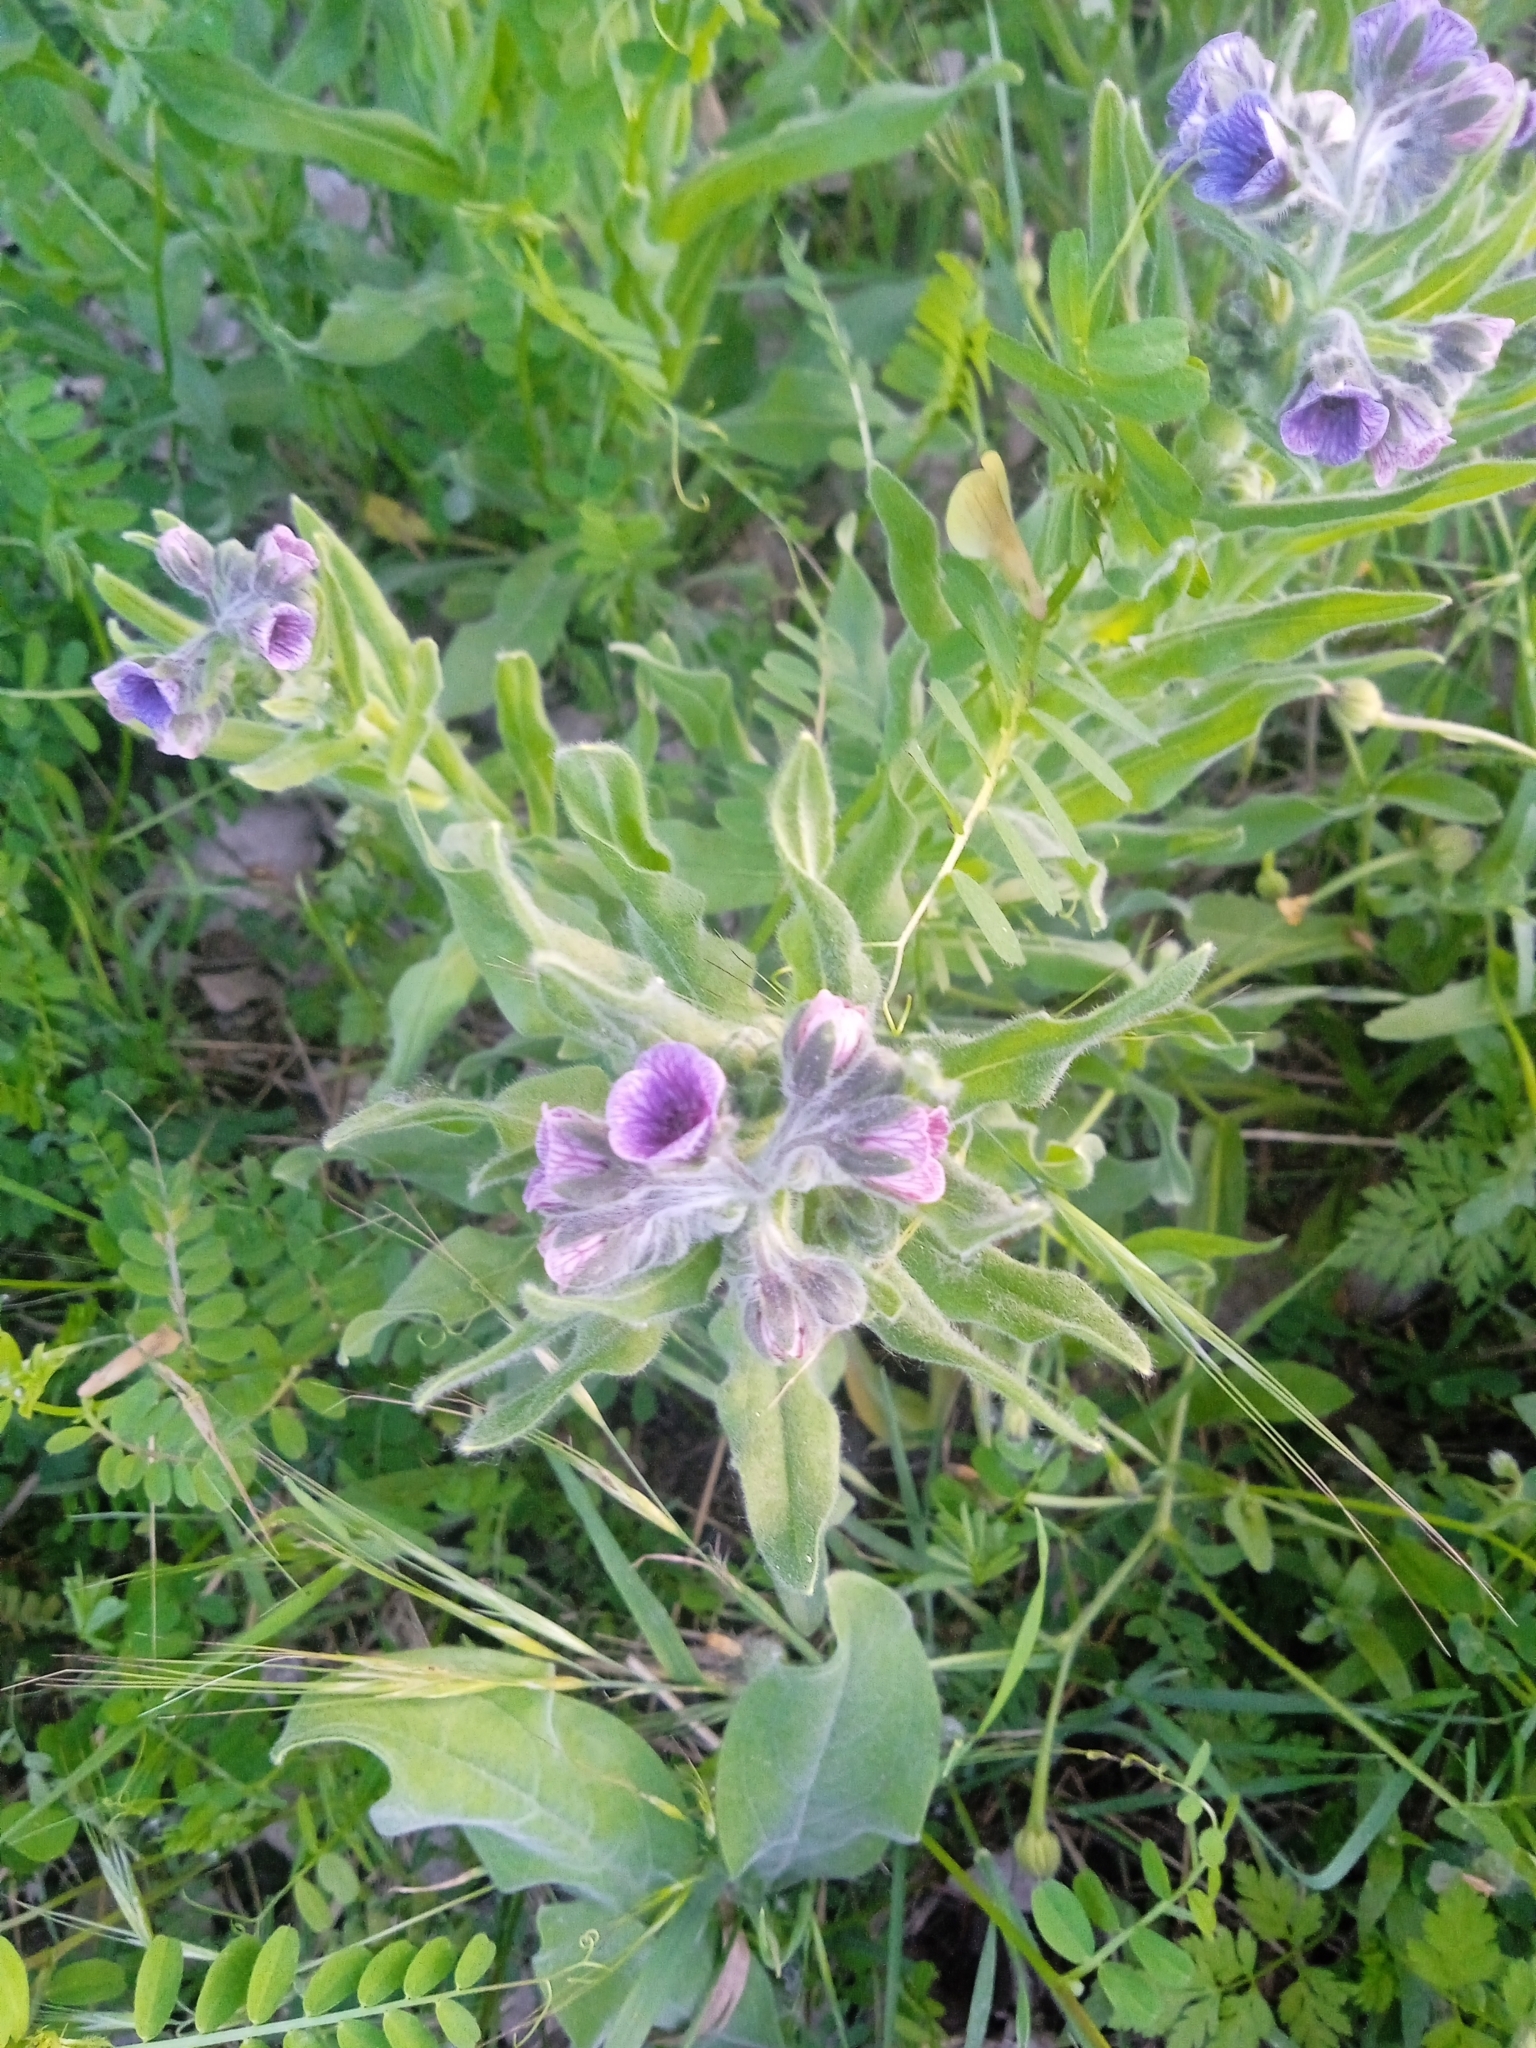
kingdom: Plantae
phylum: Tracheophyta
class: Magnoliopsida
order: Boraginales
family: Boraginaceae
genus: Cynoglossum
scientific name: Cynoglossum creticum
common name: Blue hound's tongue
